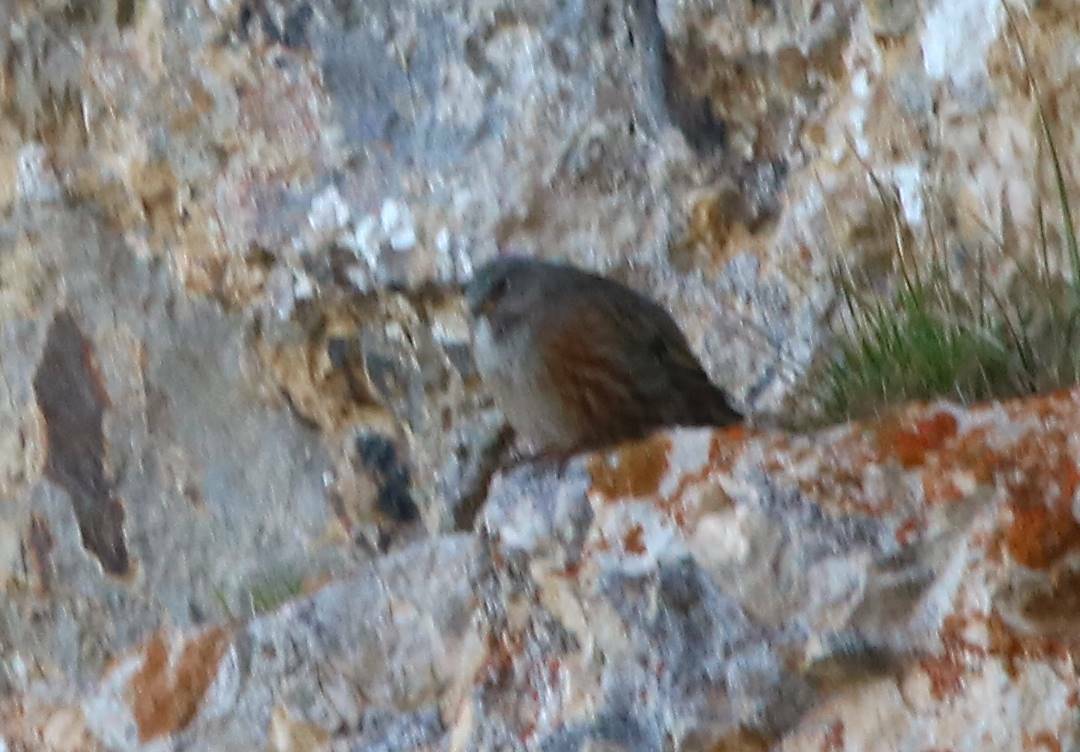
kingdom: Animalia
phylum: Chordata
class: Aves
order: Passeriformes
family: Prunellidae
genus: Prunella
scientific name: Prunella collaris
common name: Alpine accentor
